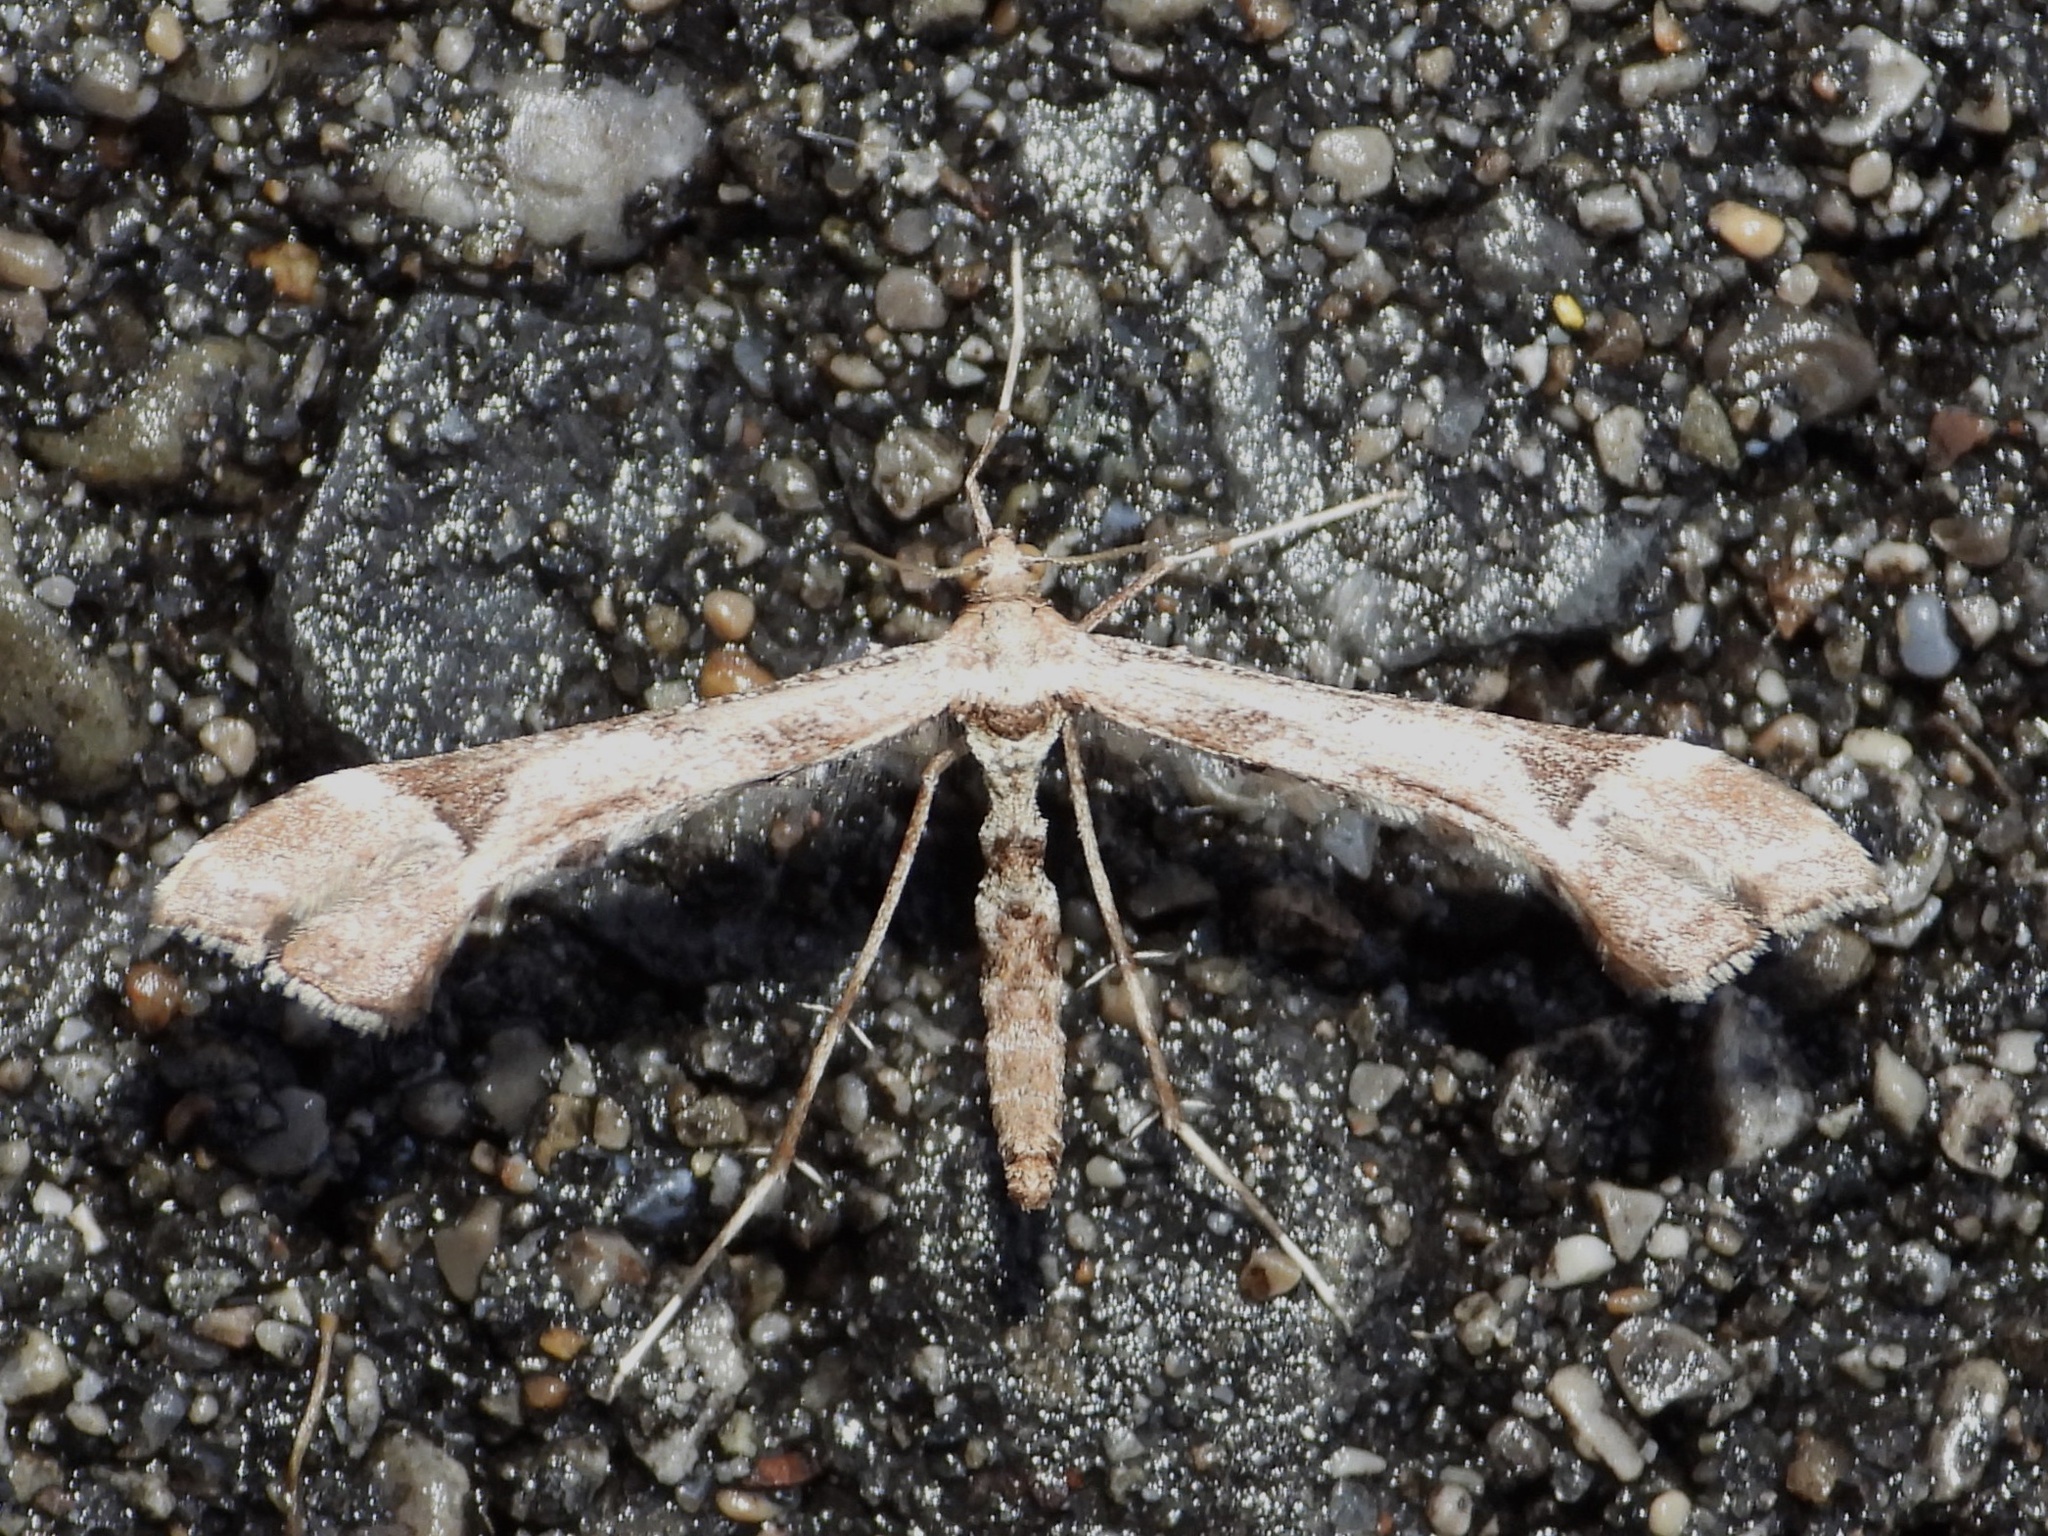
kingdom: Animalia
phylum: Arthropoda
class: Insecta
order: Lepidoptera
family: Pterophoridae
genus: Platyptilia
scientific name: Platyptilia carduidactylus
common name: Artichoke plume moth
